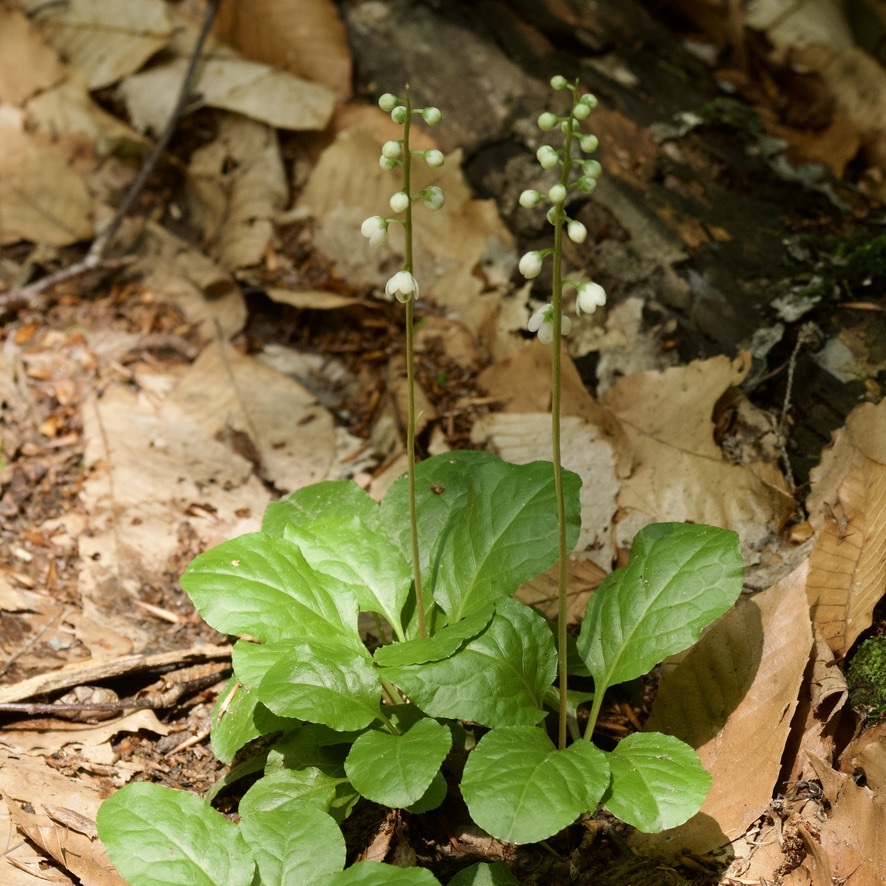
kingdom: Plantae
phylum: Tracheophyta
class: Magnoliopsida
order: Ericales
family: Ericaceae
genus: Pyrola
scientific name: Pyrola elliptica
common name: Shinleaf
